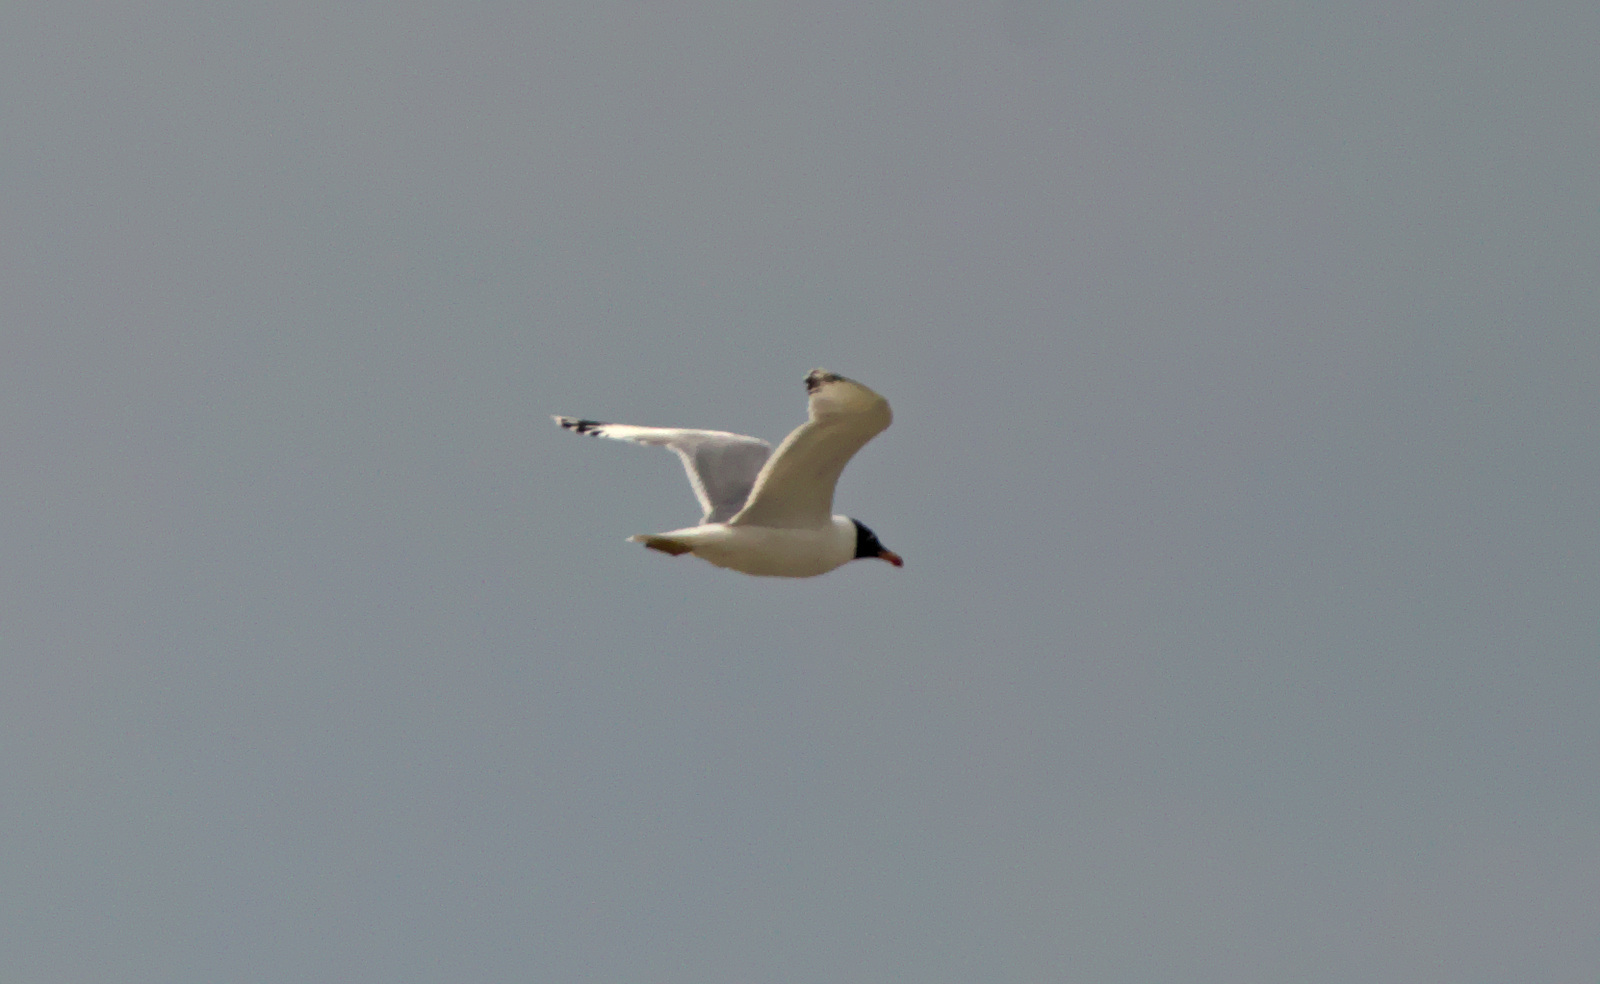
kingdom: Animalia
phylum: Chordata
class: Aves
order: Charadriiformes
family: Laridae
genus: Chroicocephalus
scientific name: Chroicocephalus ridibundus
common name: Black-headed gull
